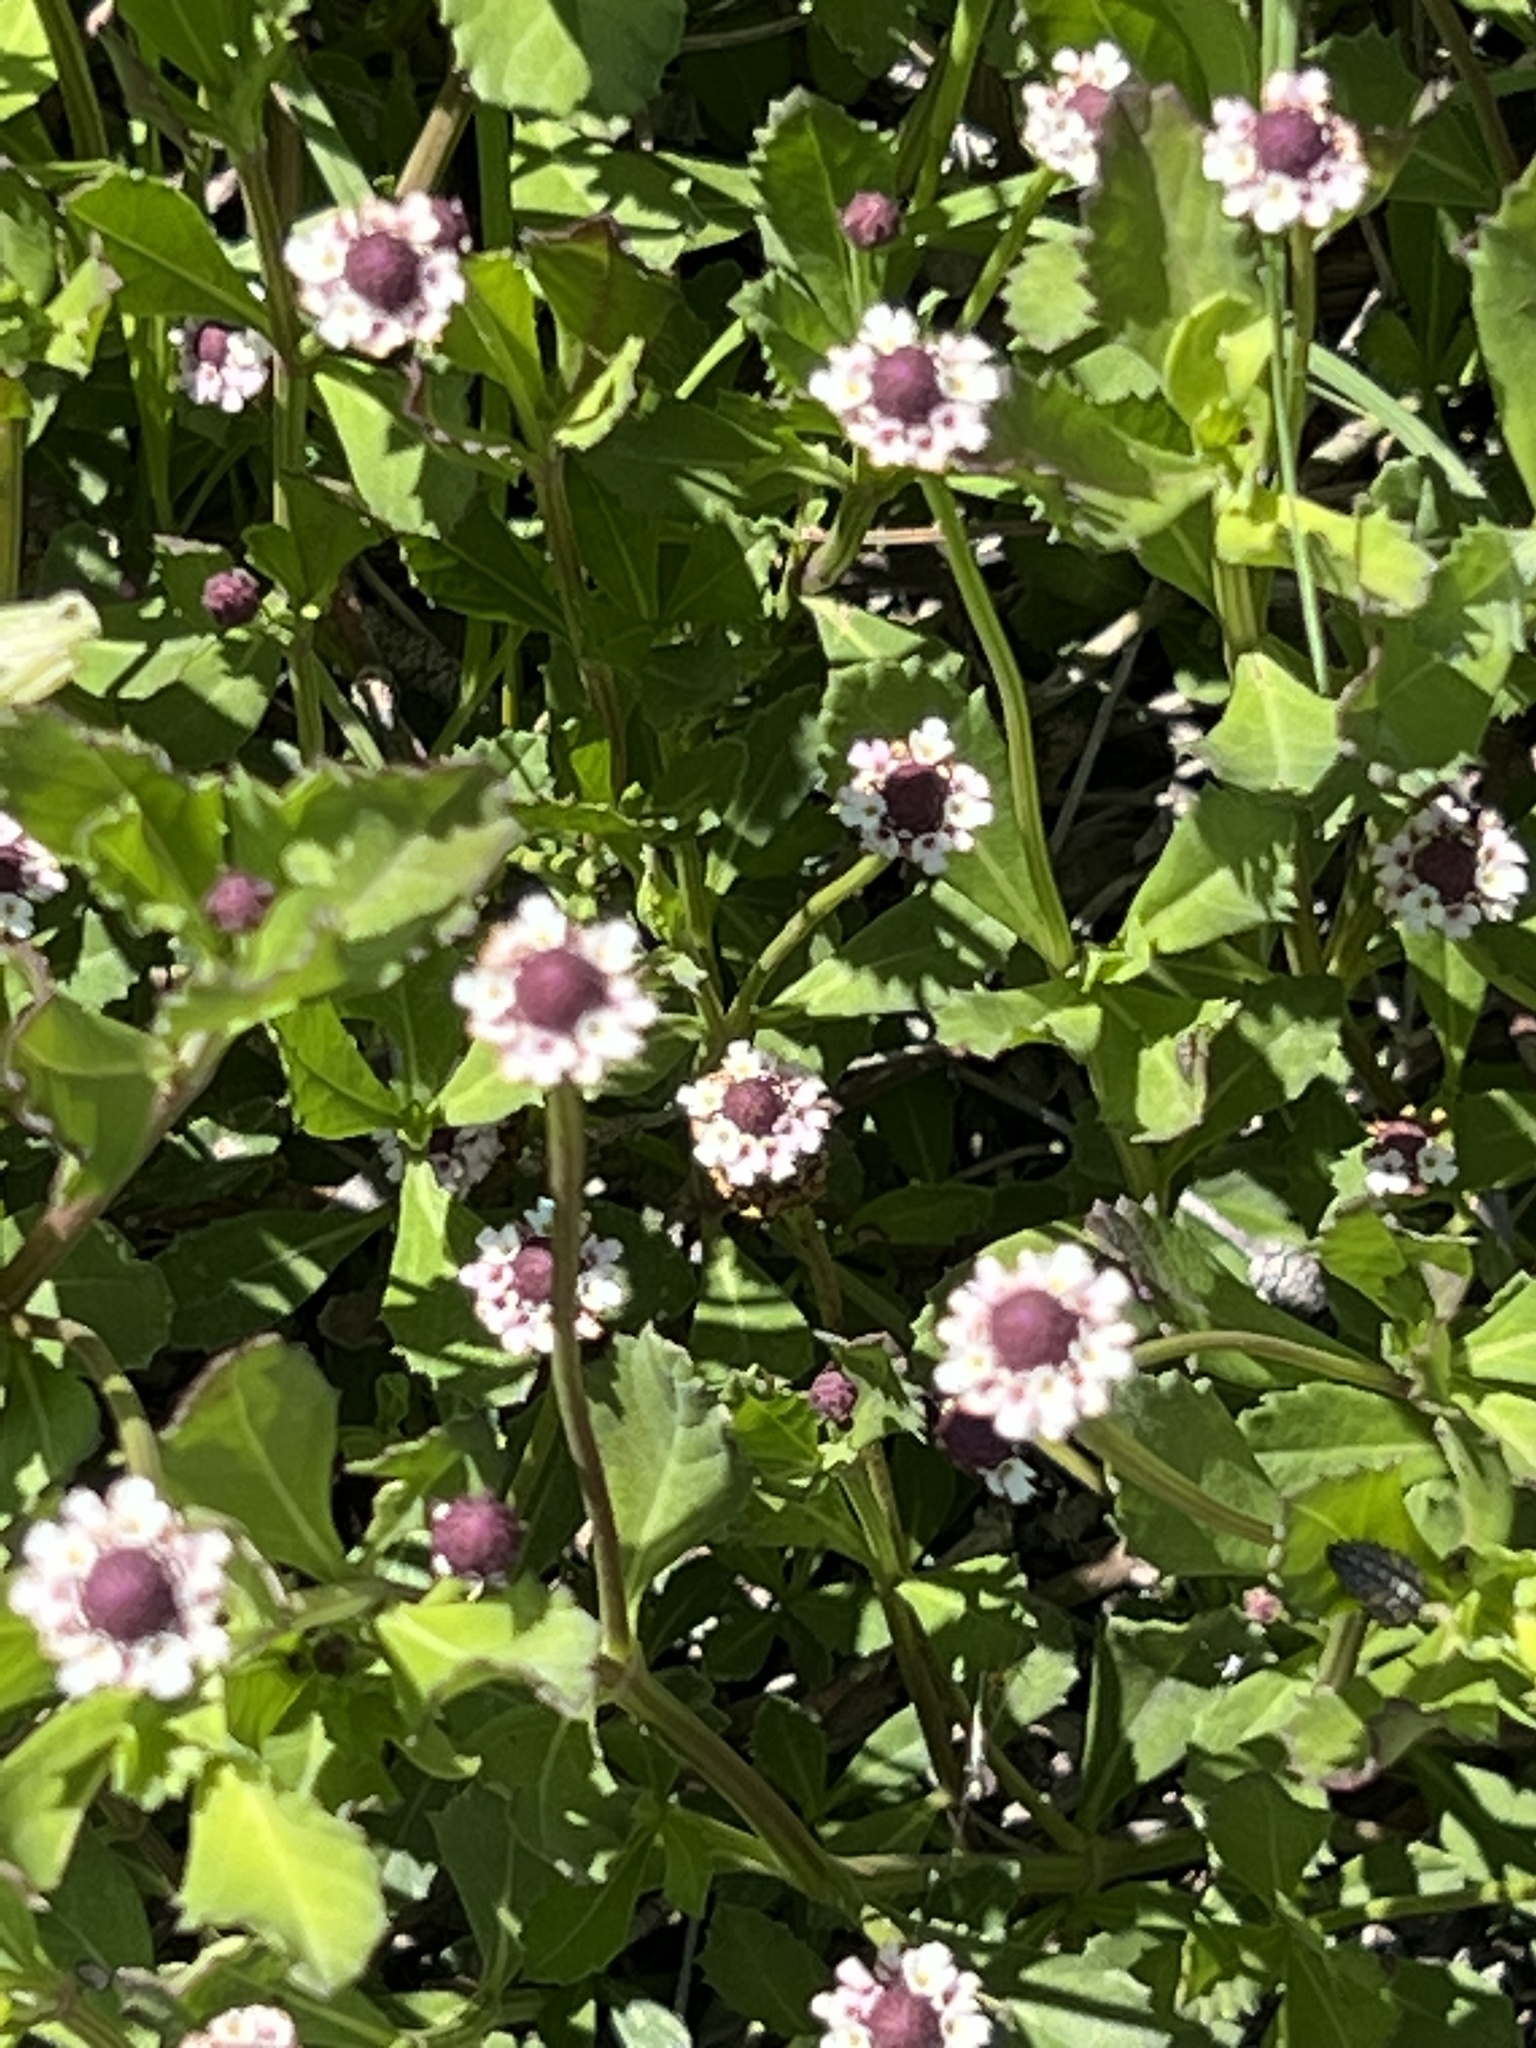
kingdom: Plantae
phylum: Tracheophyta
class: Magnoliopsida
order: Lamiales
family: Verbenaceae
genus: Phyla
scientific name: Phyla nodiflora
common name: Frogfruit
